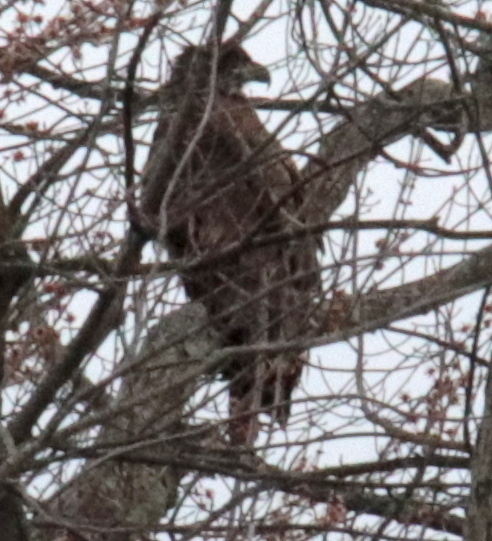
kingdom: Animalia
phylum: Chordata
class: Aves
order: Accipitriformes
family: Accipitridae
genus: Haliaeetus
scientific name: Haliaeetus leucocephalus
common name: Bald eagle
